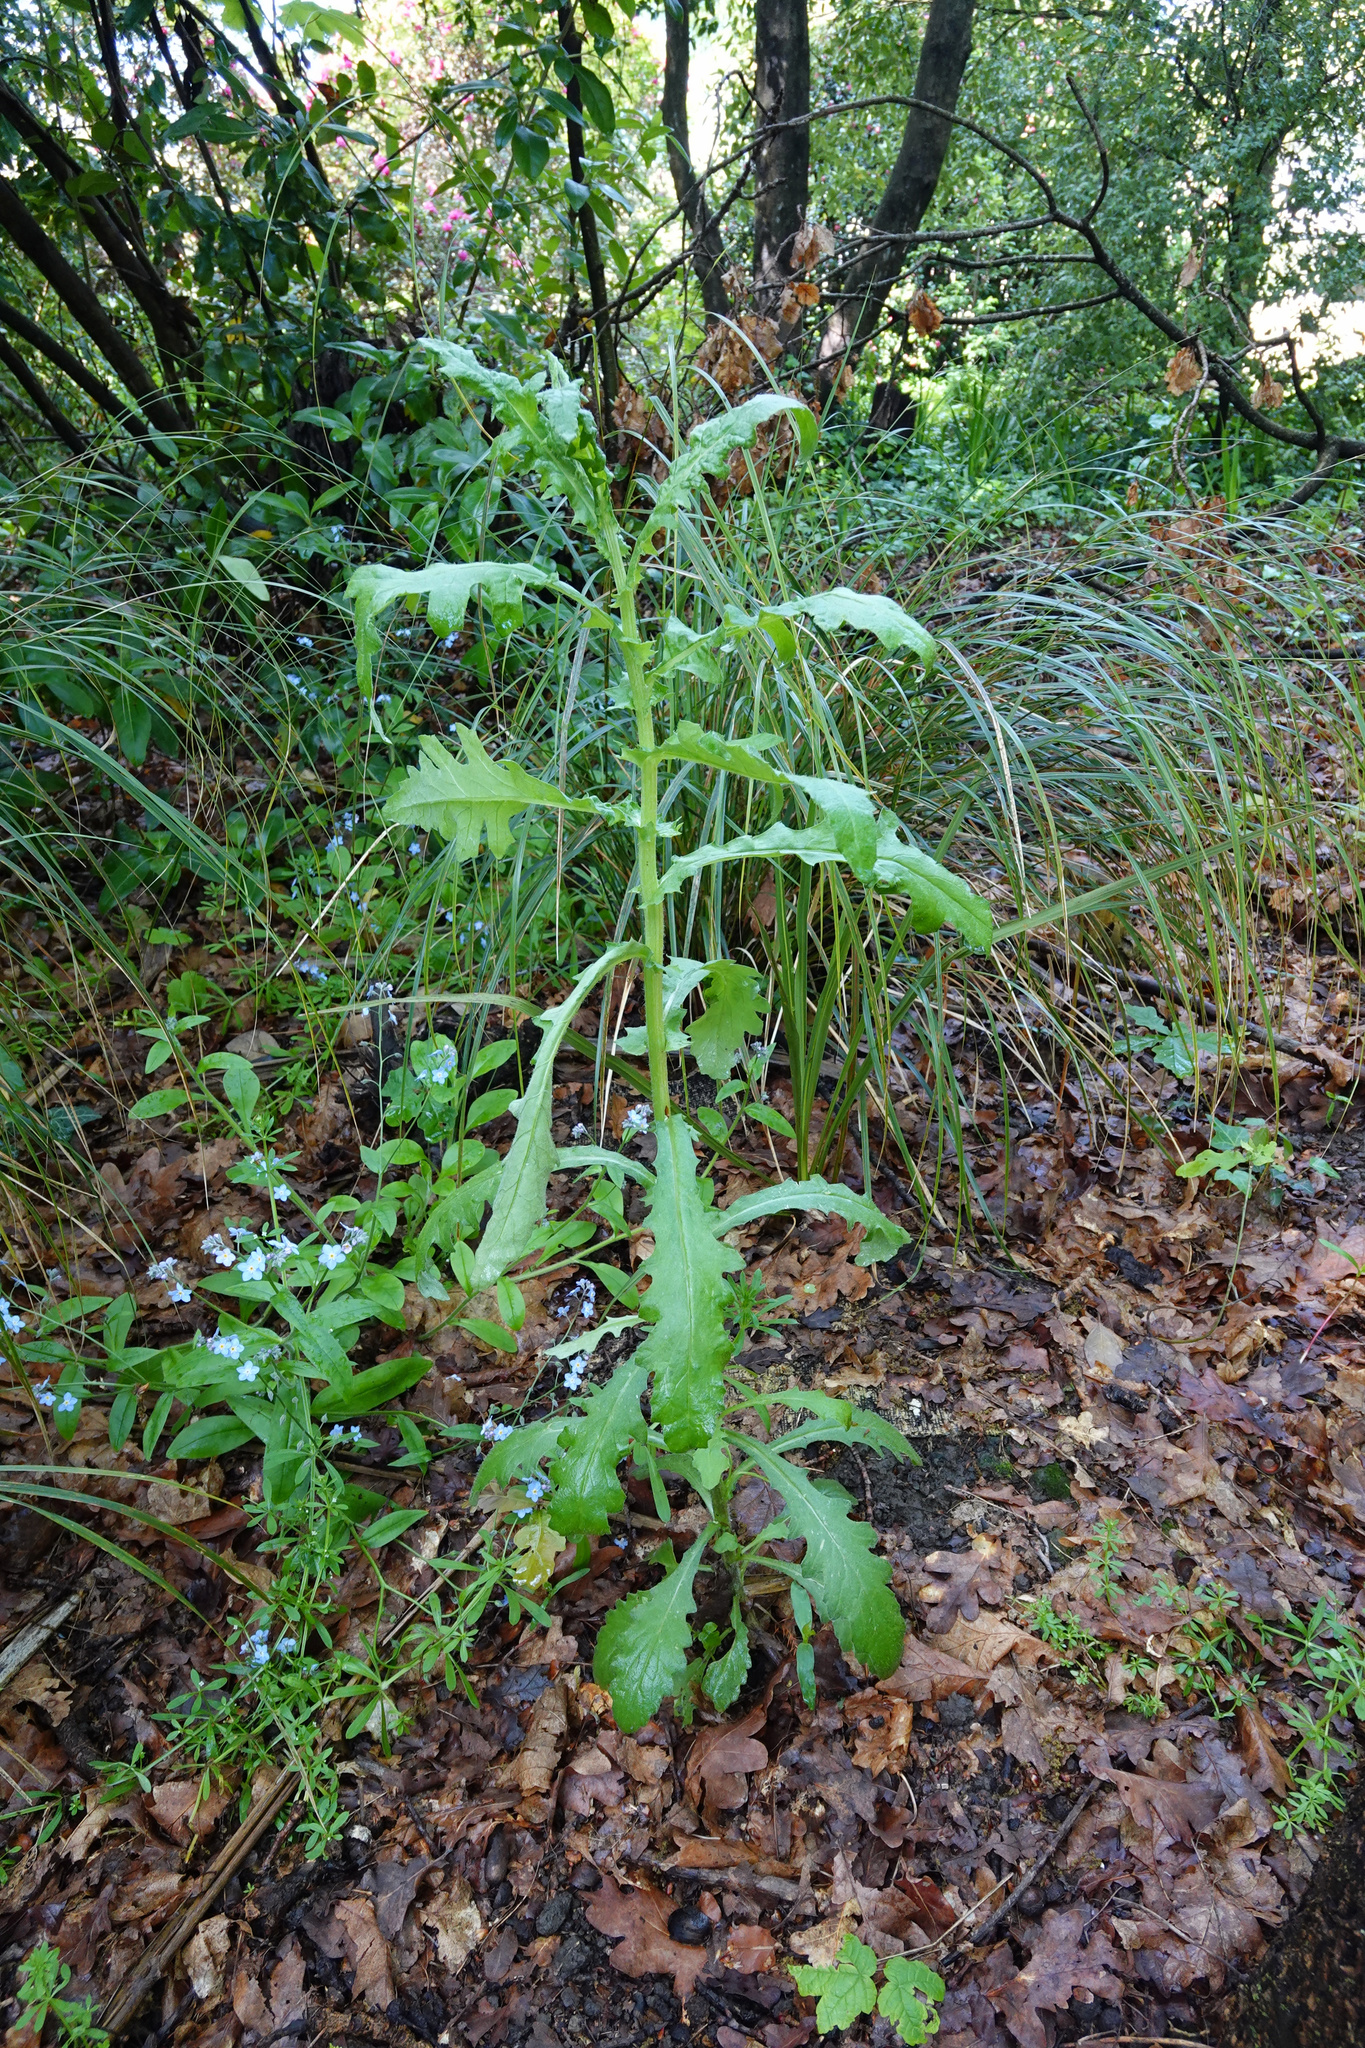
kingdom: Plantae
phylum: Tracheophyta
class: Magnoliopsida
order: Asterales
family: Asteraceae
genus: Senecio
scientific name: Senecio glomeratus
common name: Cutleaf burnweed
